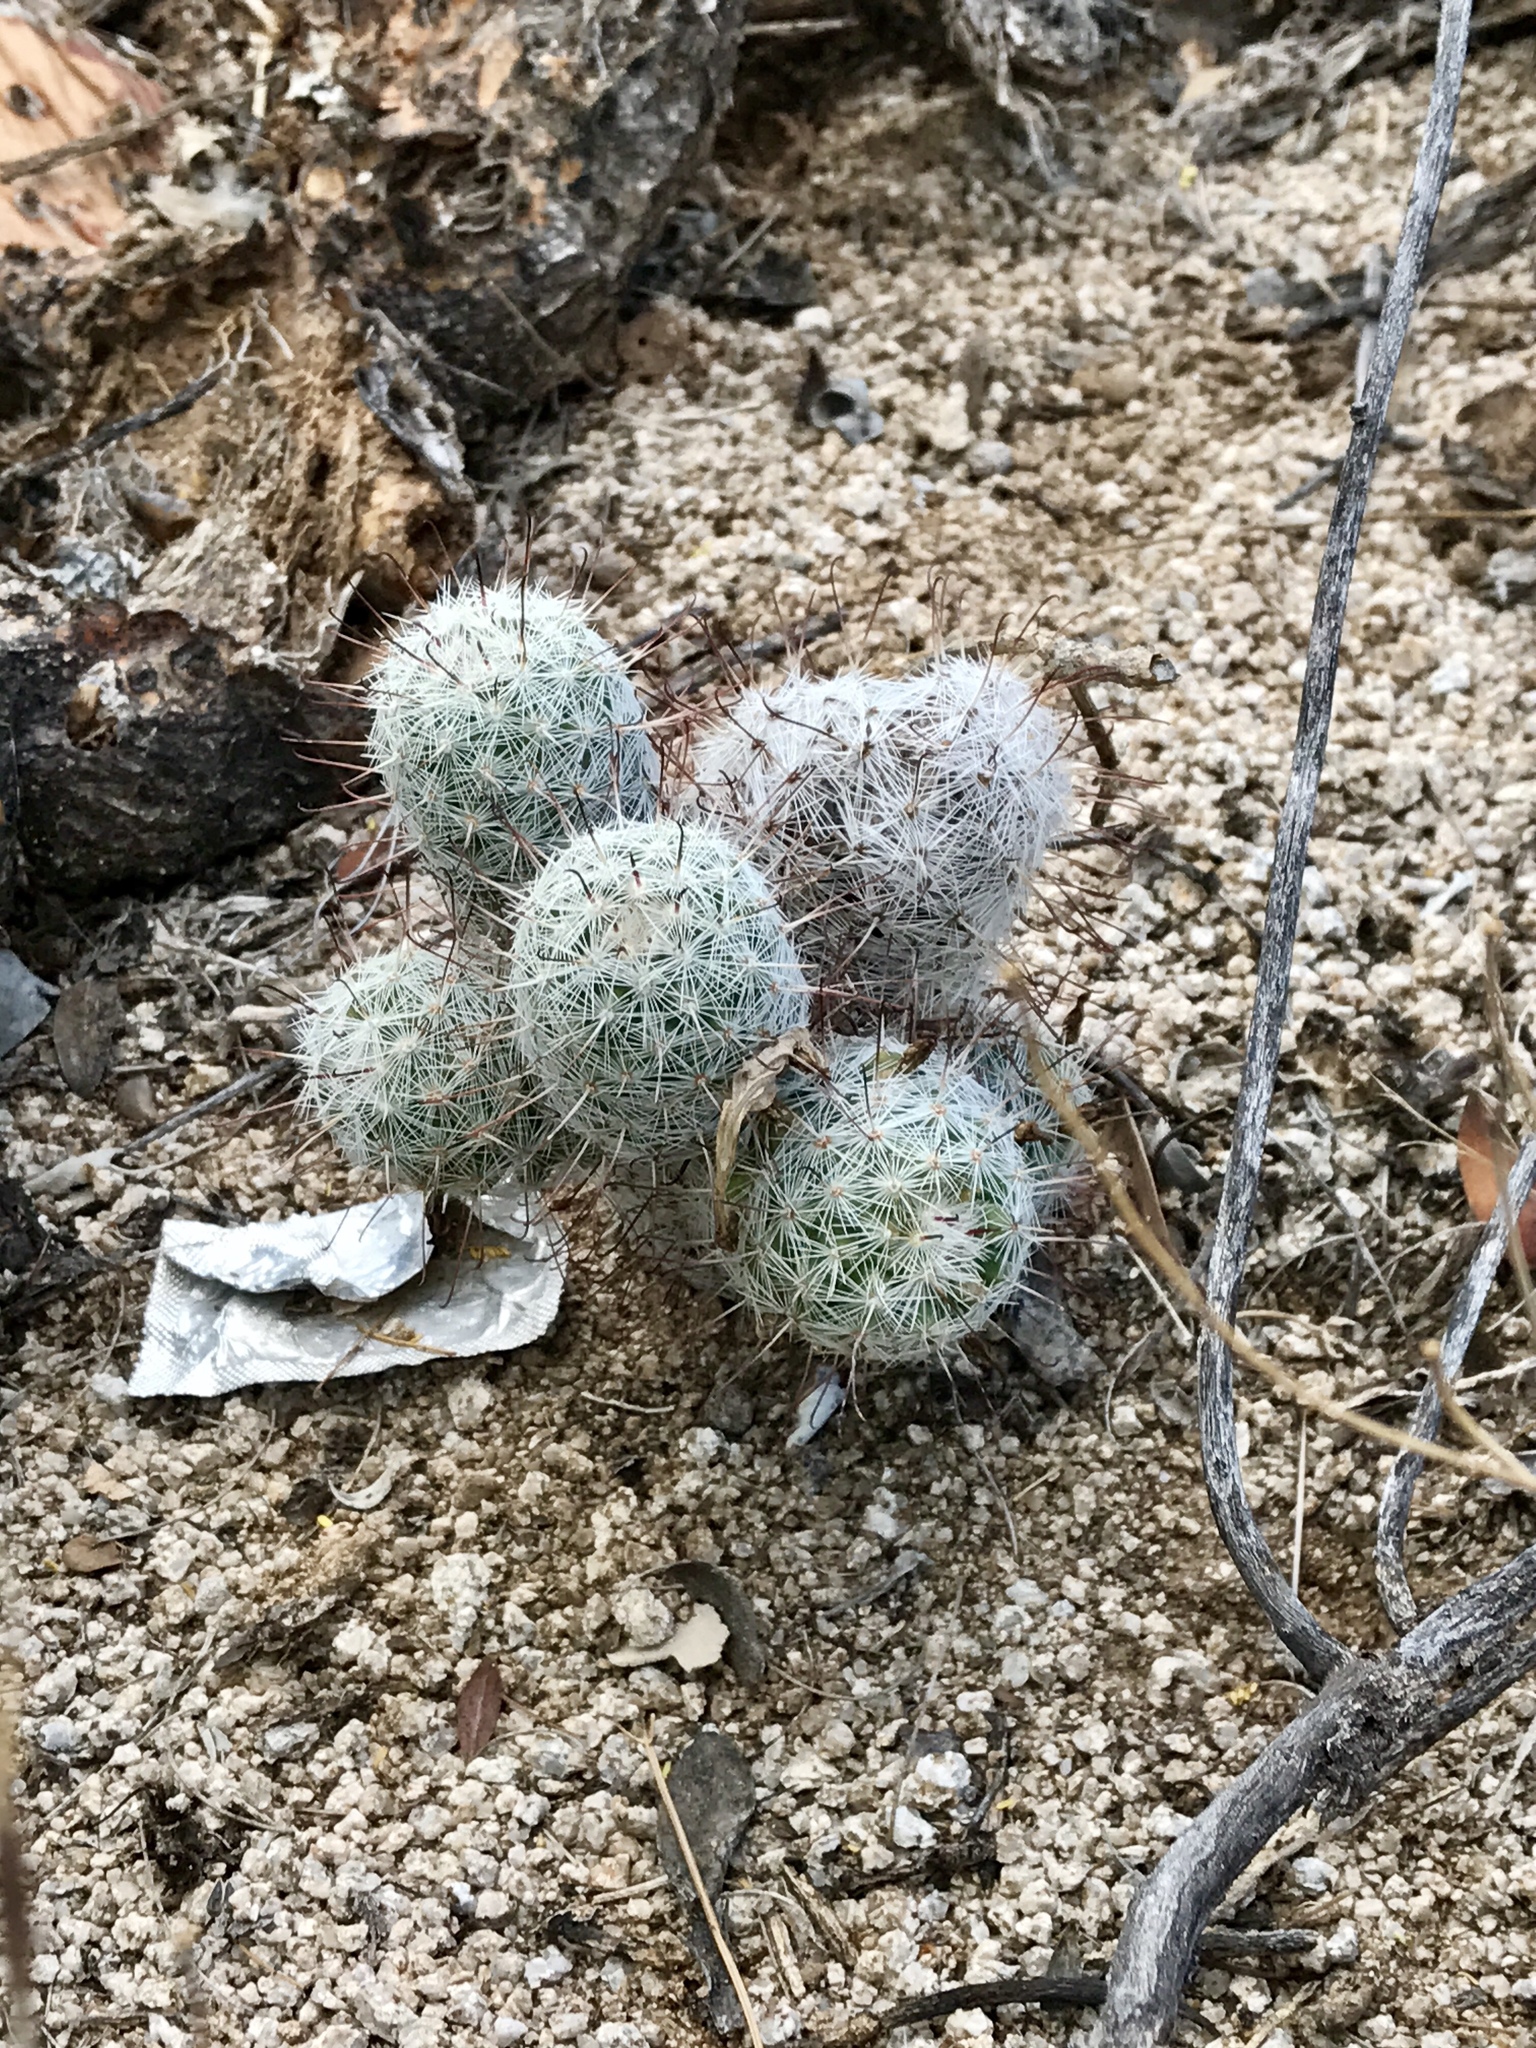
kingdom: Plantae
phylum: Tracheophyta
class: Magnoliopsida
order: Caryophyllales
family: Cactaceae
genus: Cochemiea
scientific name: Cochemiea grahamii
